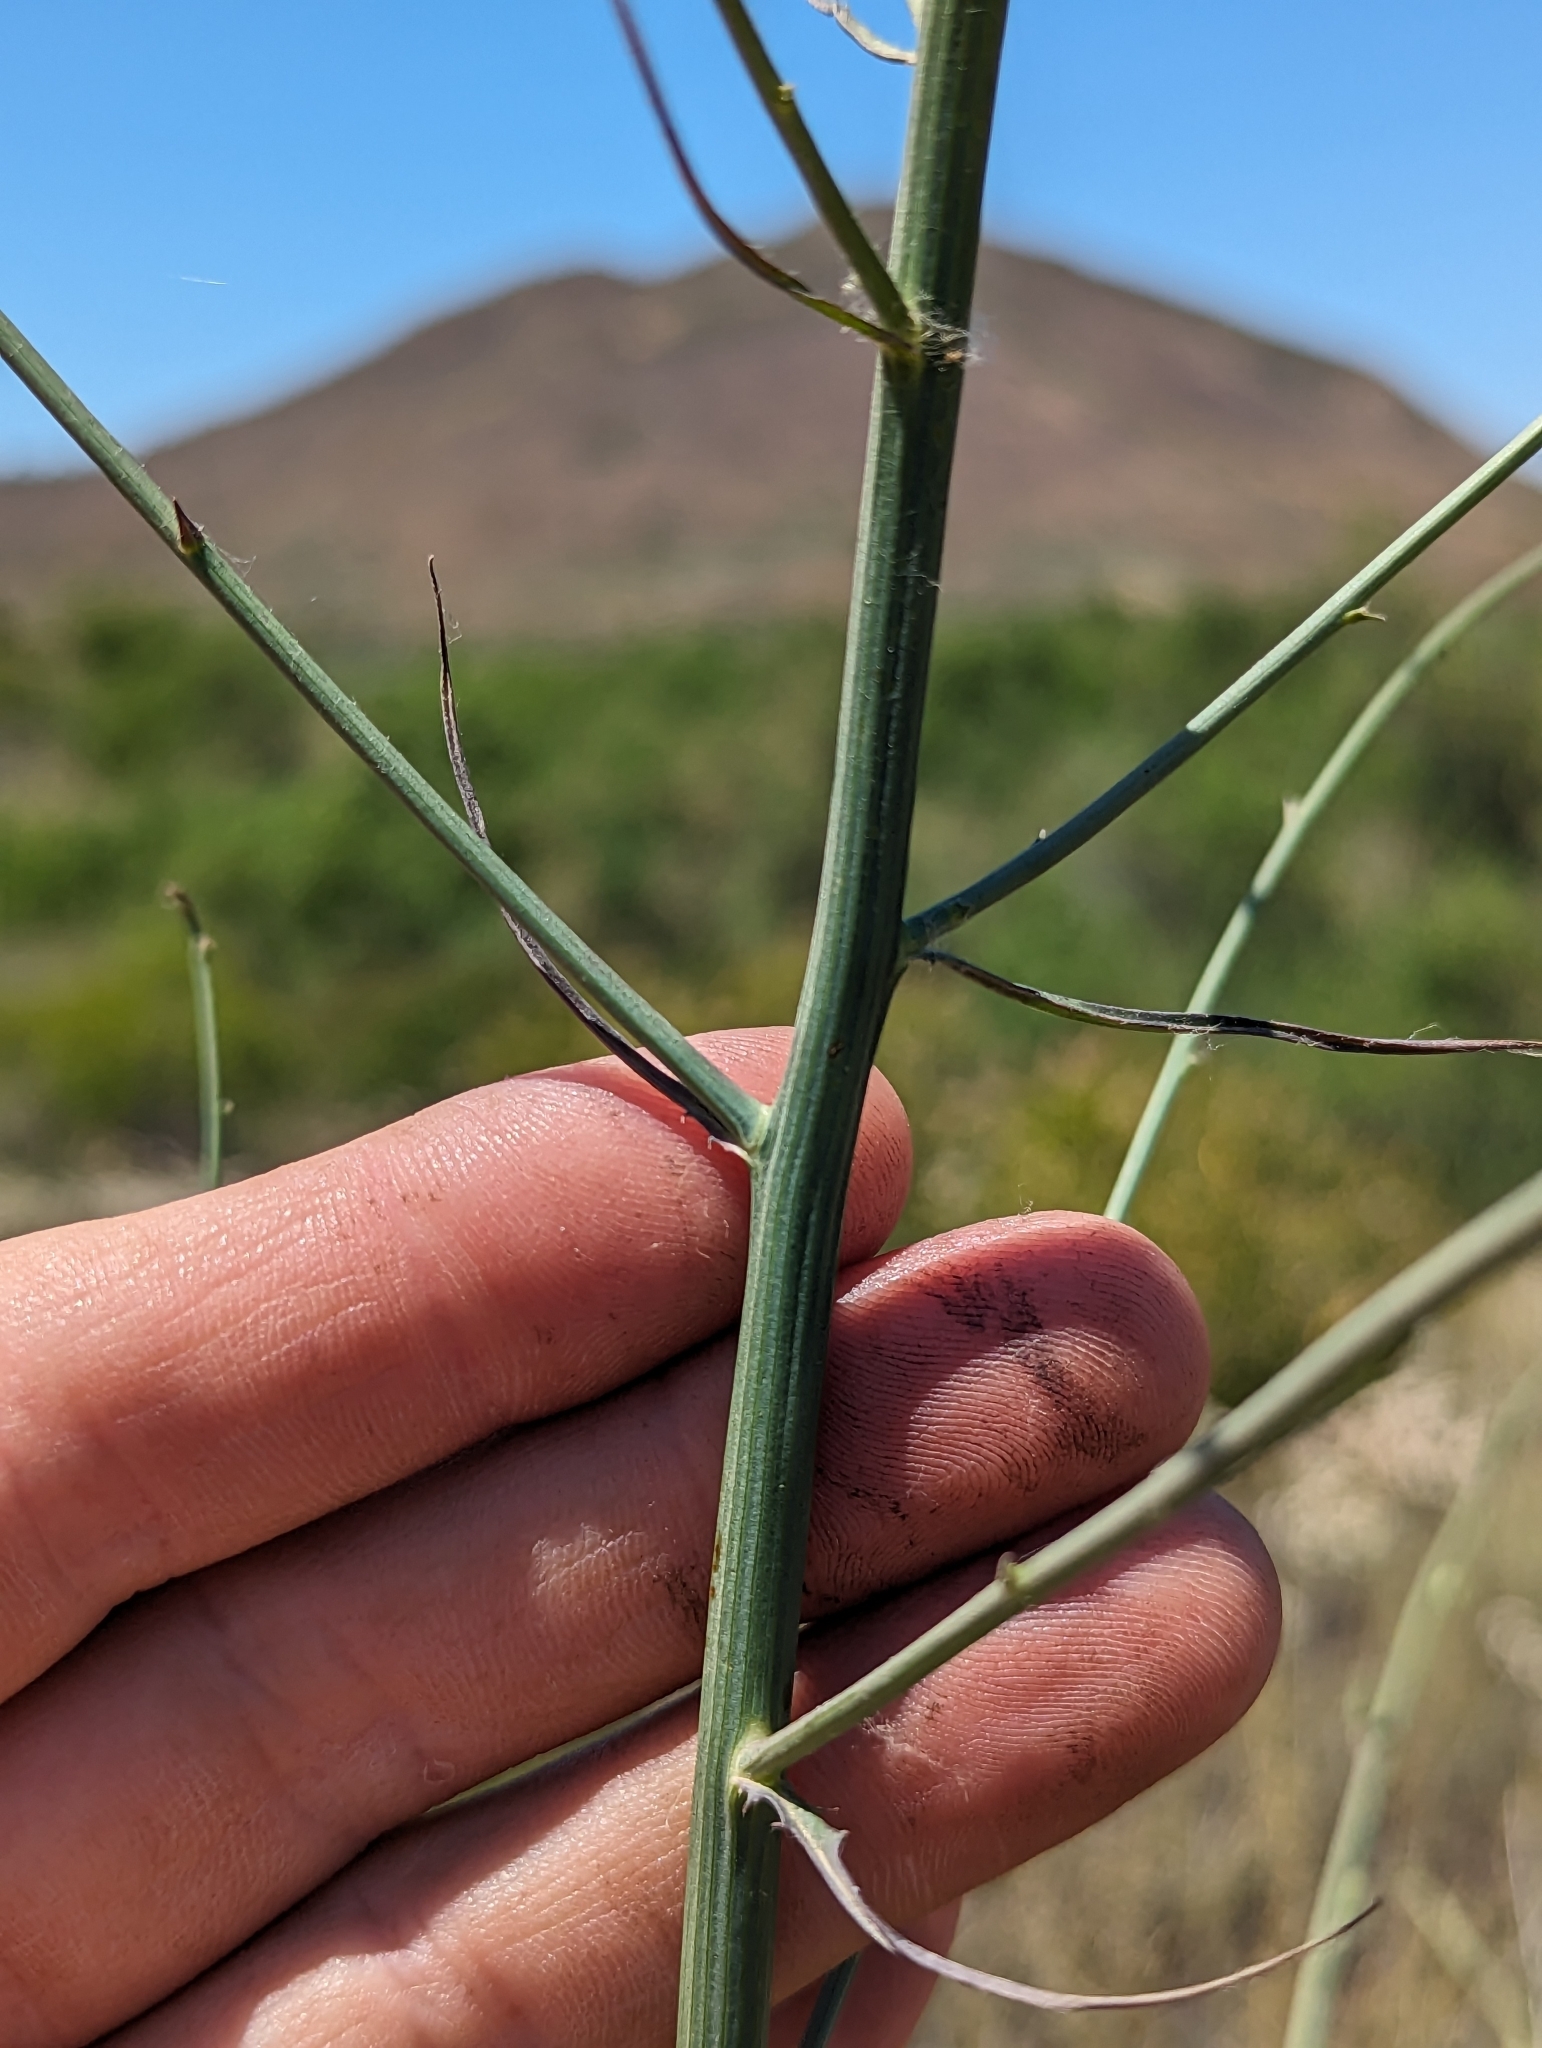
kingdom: Plantae
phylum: Tracheophyta
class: Magnoliopsida
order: Asterales
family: Asteraceae
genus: Stephanomeria
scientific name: Stephanomeria diegensis
